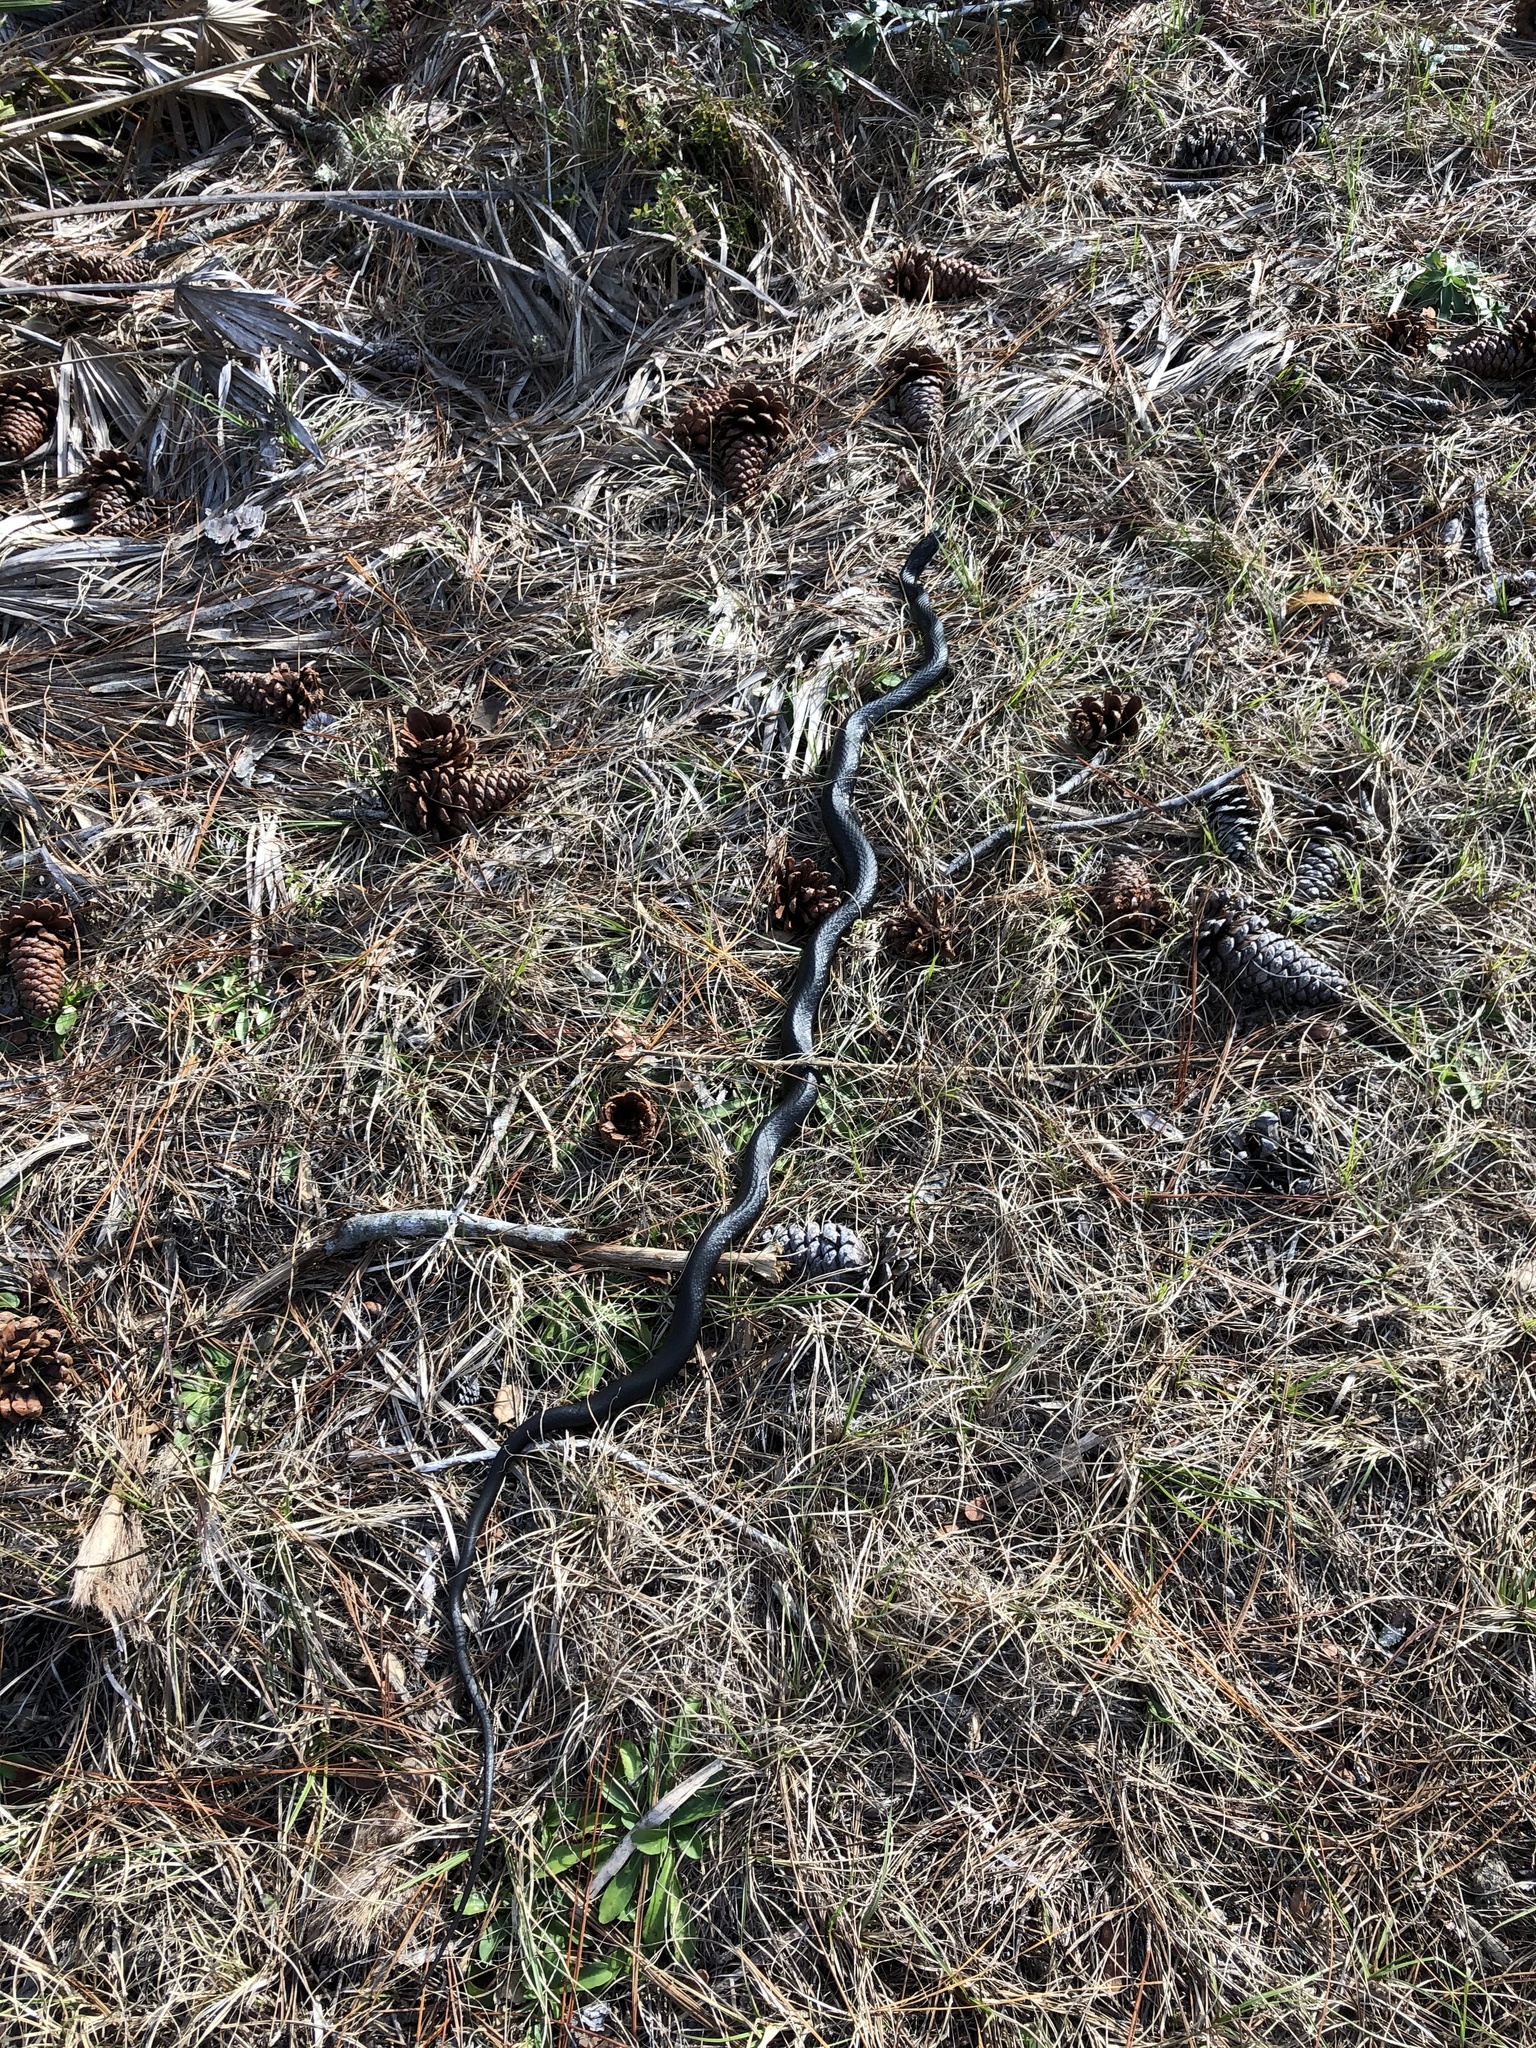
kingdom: Animalia
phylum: Chordata
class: Squamata
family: Colubridae
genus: Coluber
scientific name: Coluber constrictor
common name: Eastern racer
